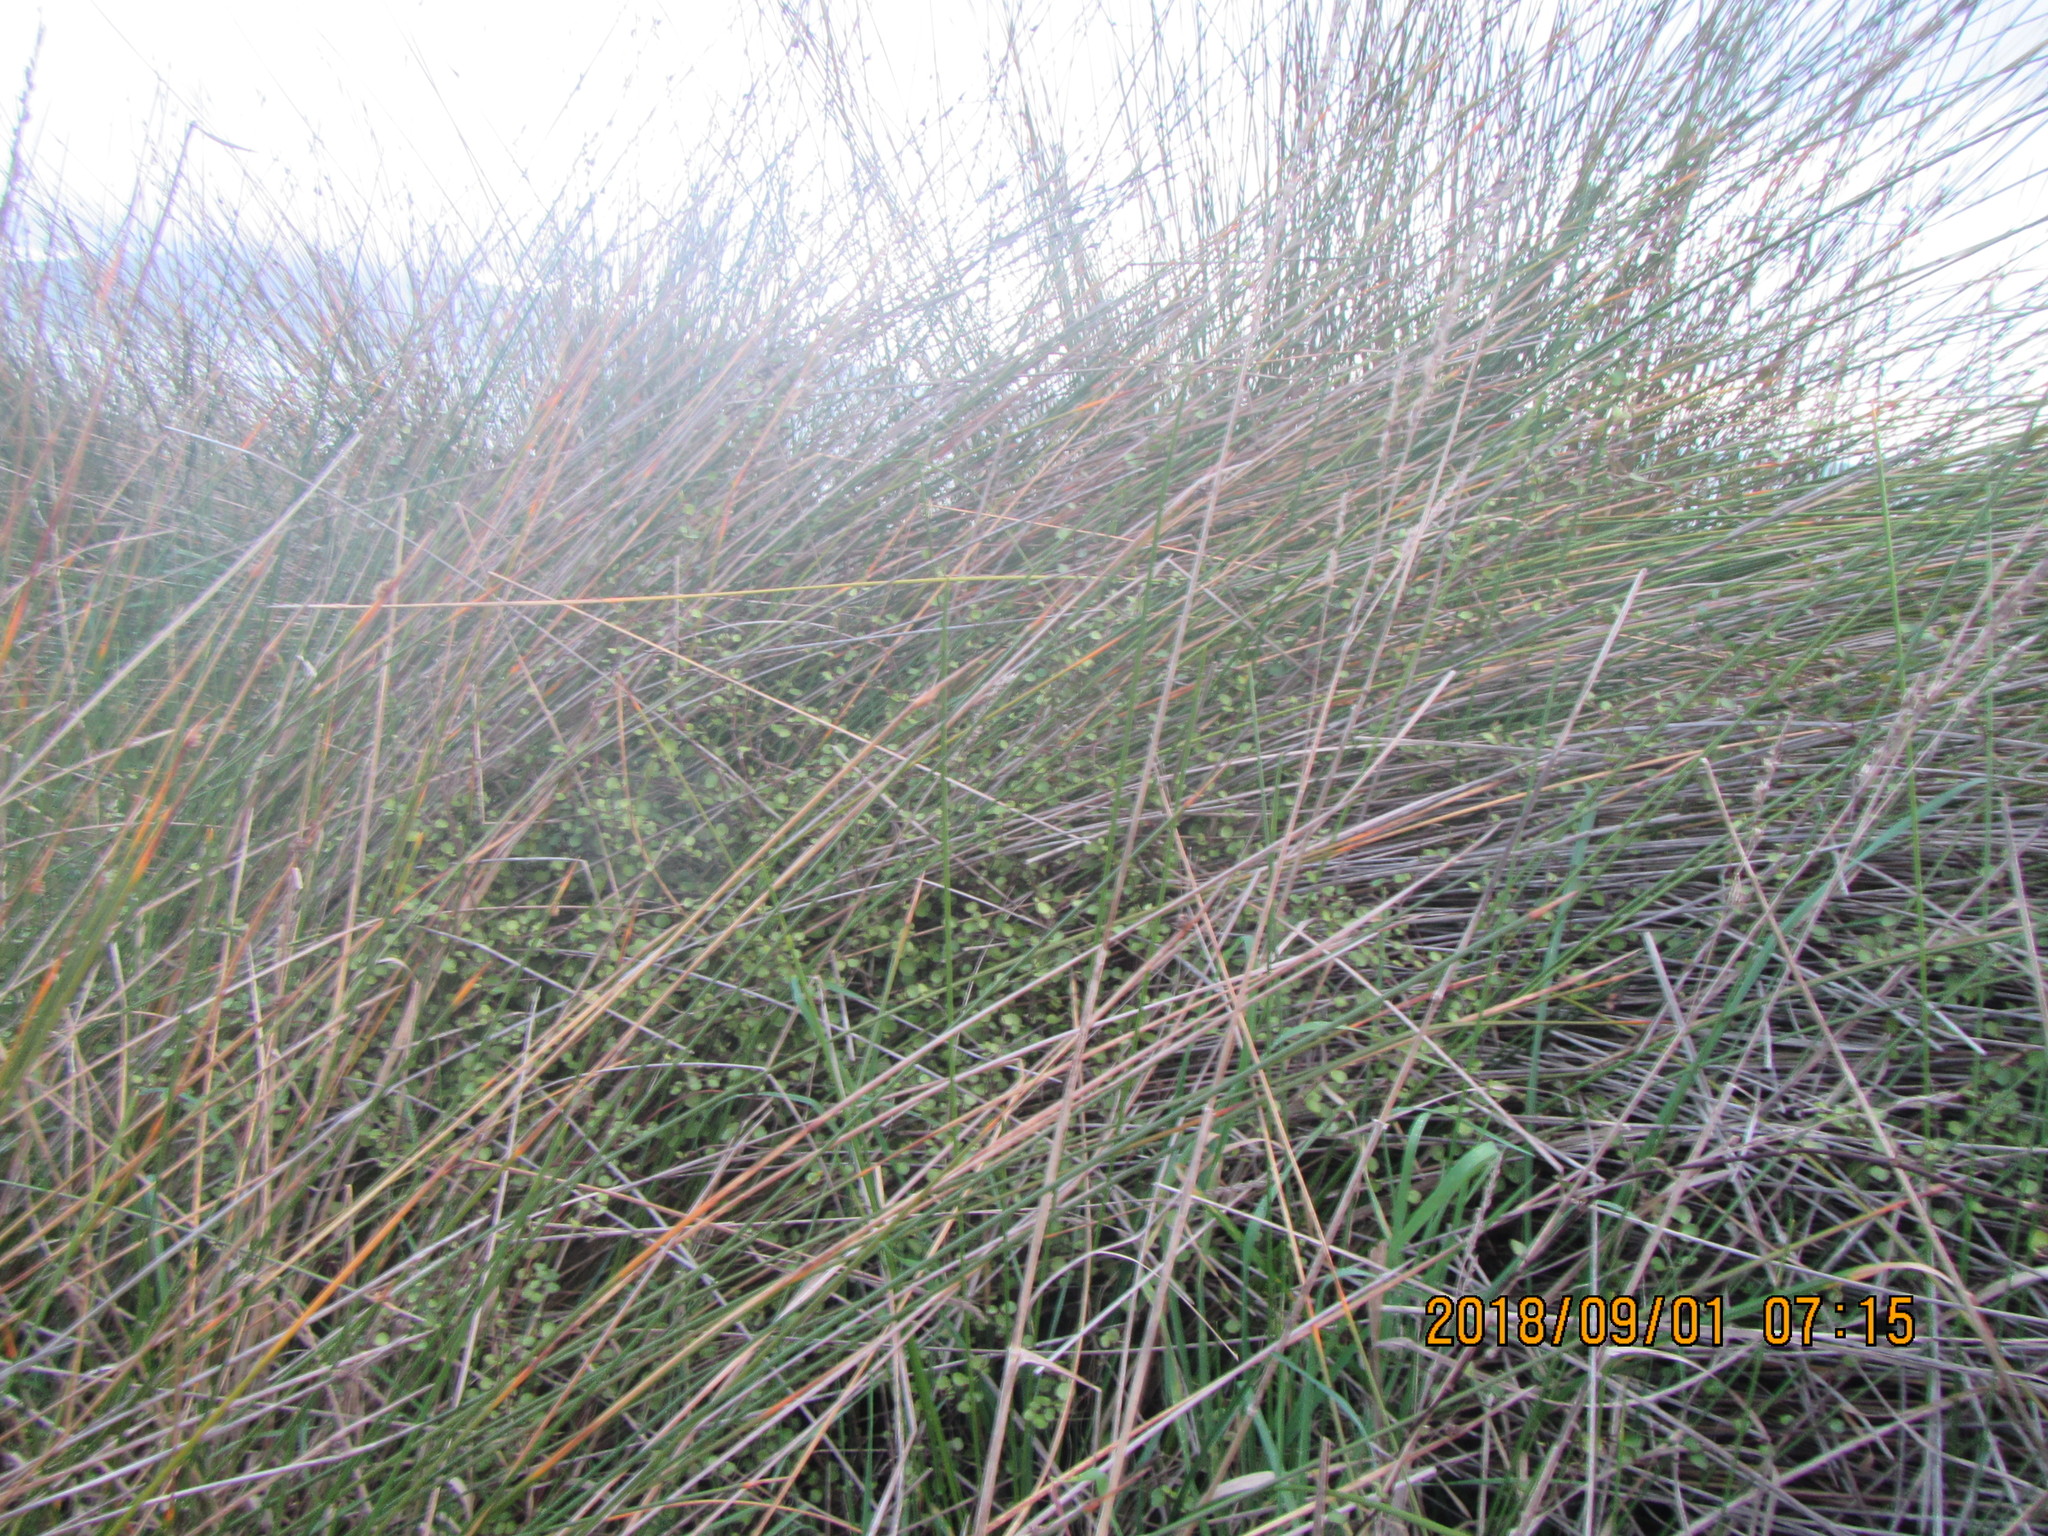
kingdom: Plantae
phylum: Tracheophyta
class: Magnoliopsida
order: Caryophyllales
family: Polygonaceae
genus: Muehlenbeckia
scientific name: Muehlenbeckia complexa
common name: Wireplant
